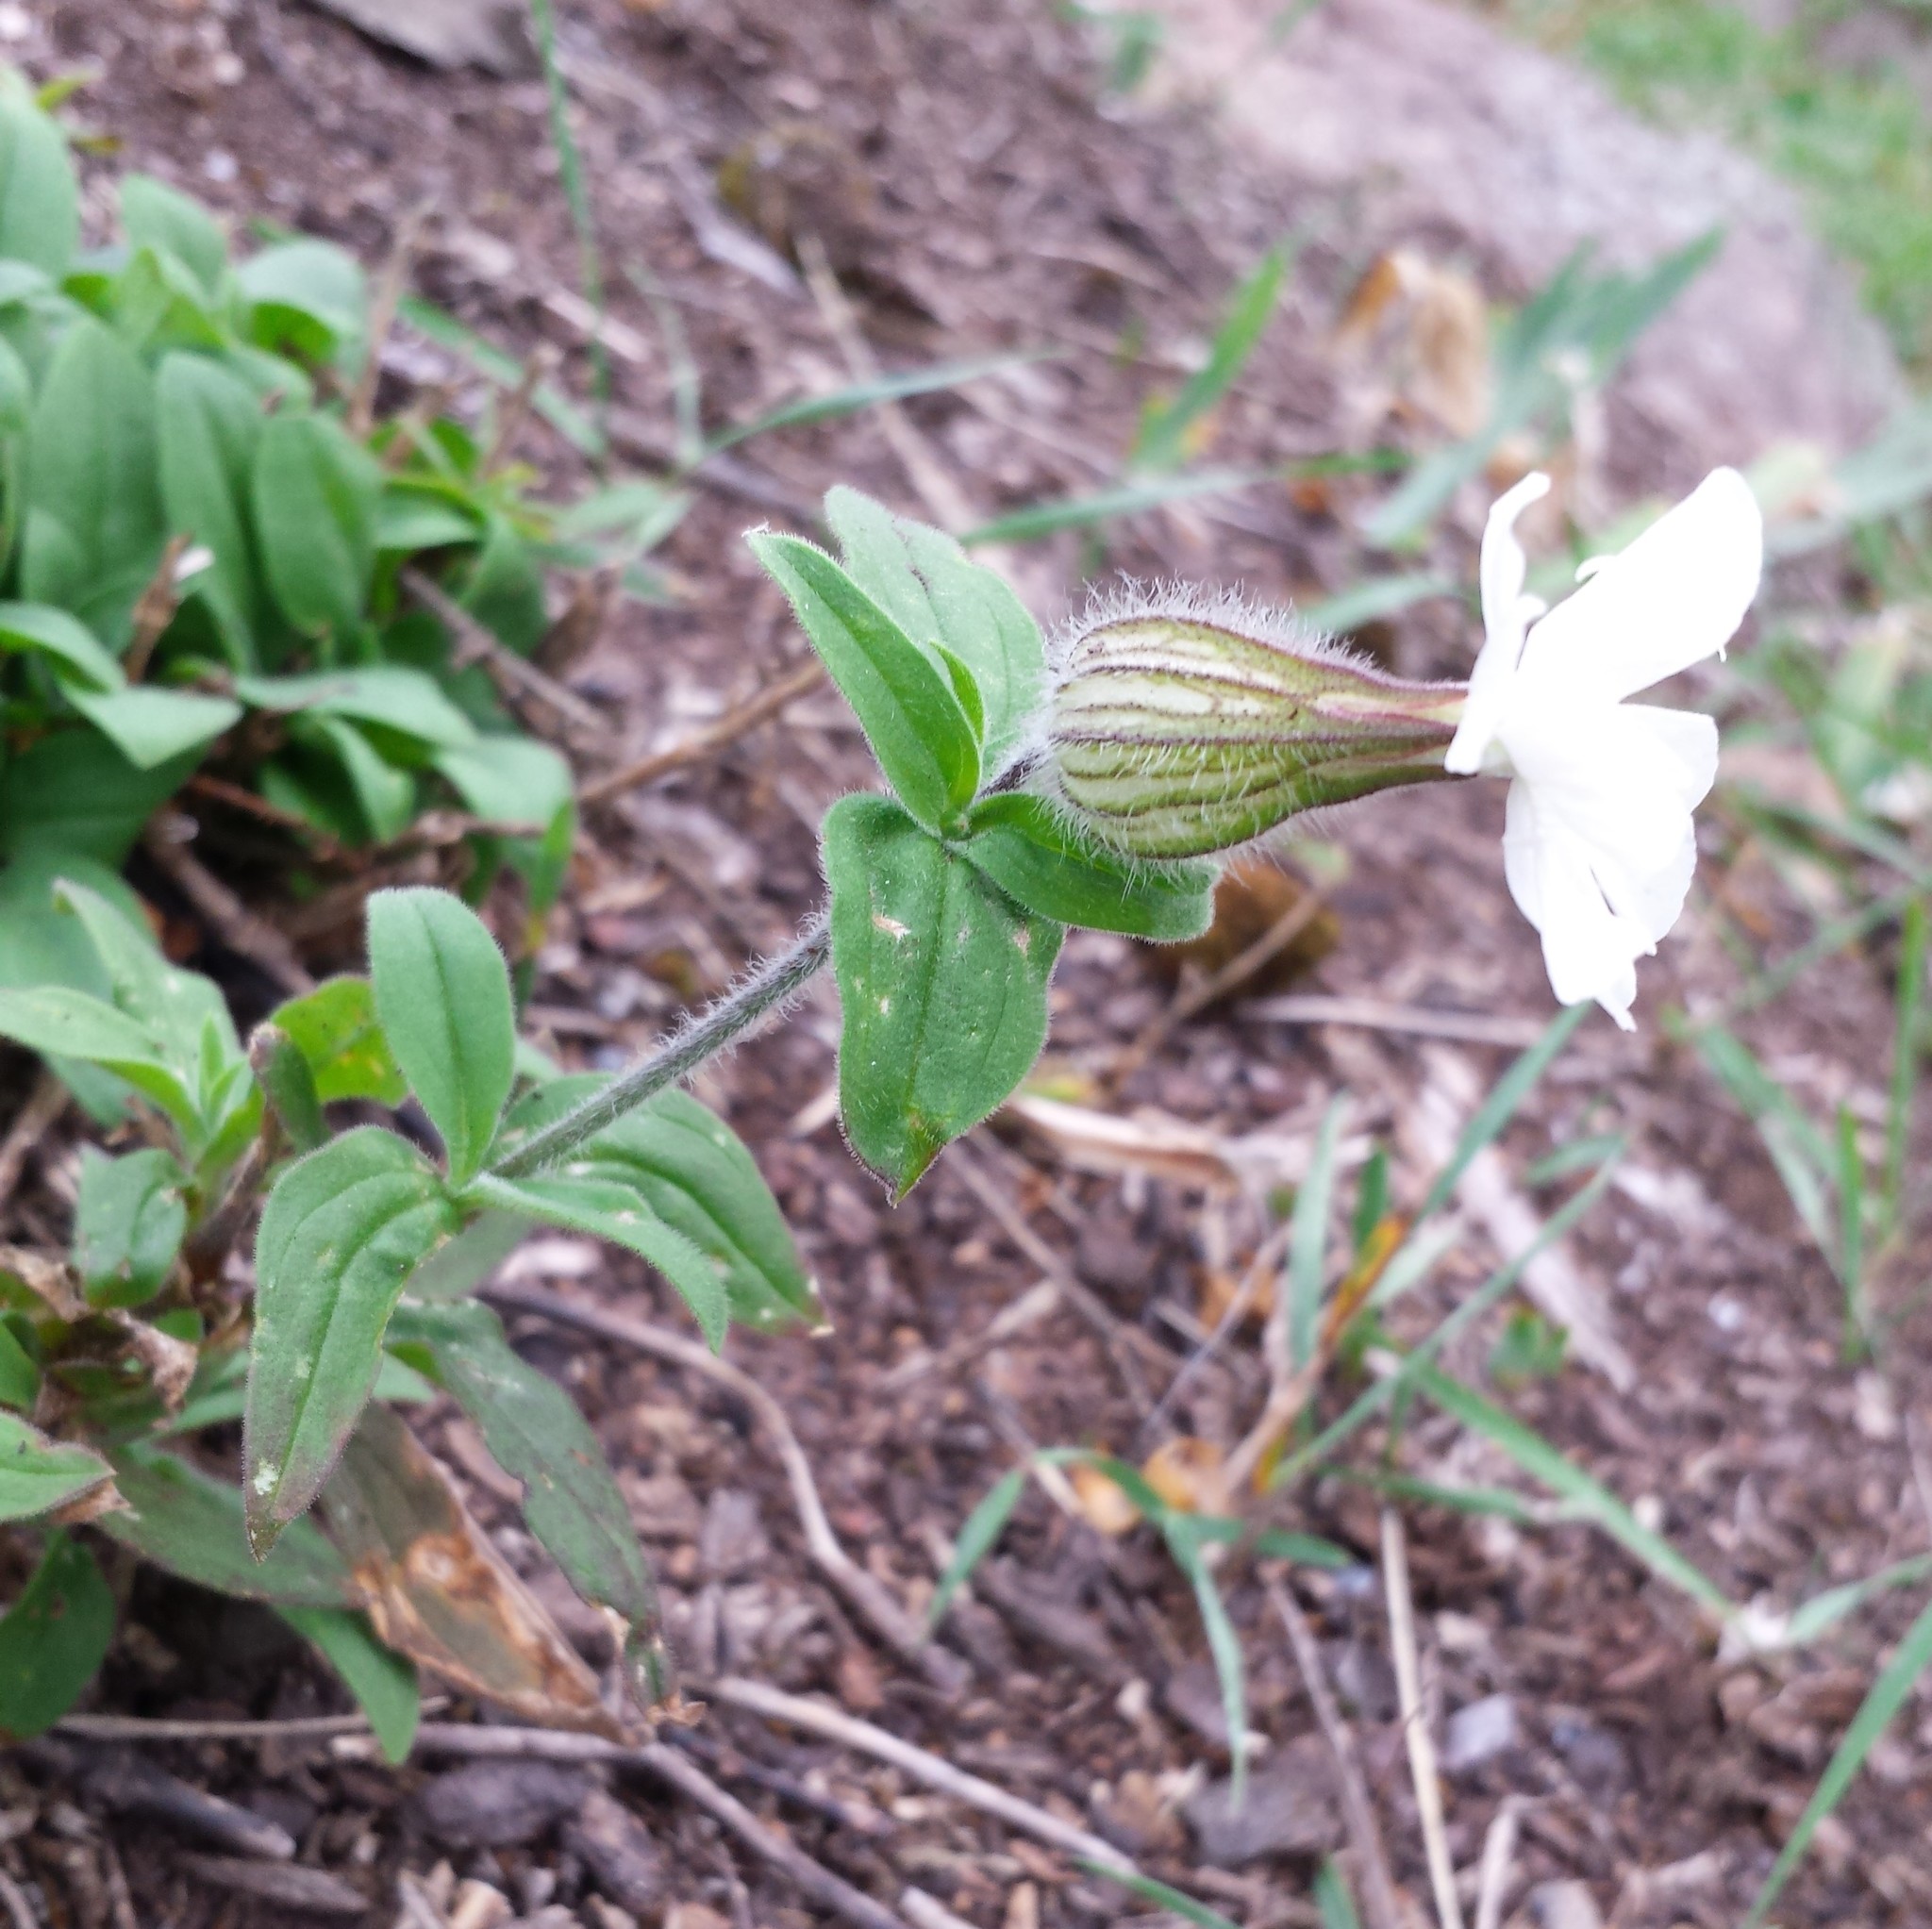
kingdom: Plantae
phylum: Tracheophyta
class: Magnoliopsida
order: Caryophyllales
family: Caryophyllaceae
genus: Silene
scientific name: Silene latifolia
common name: White campion
